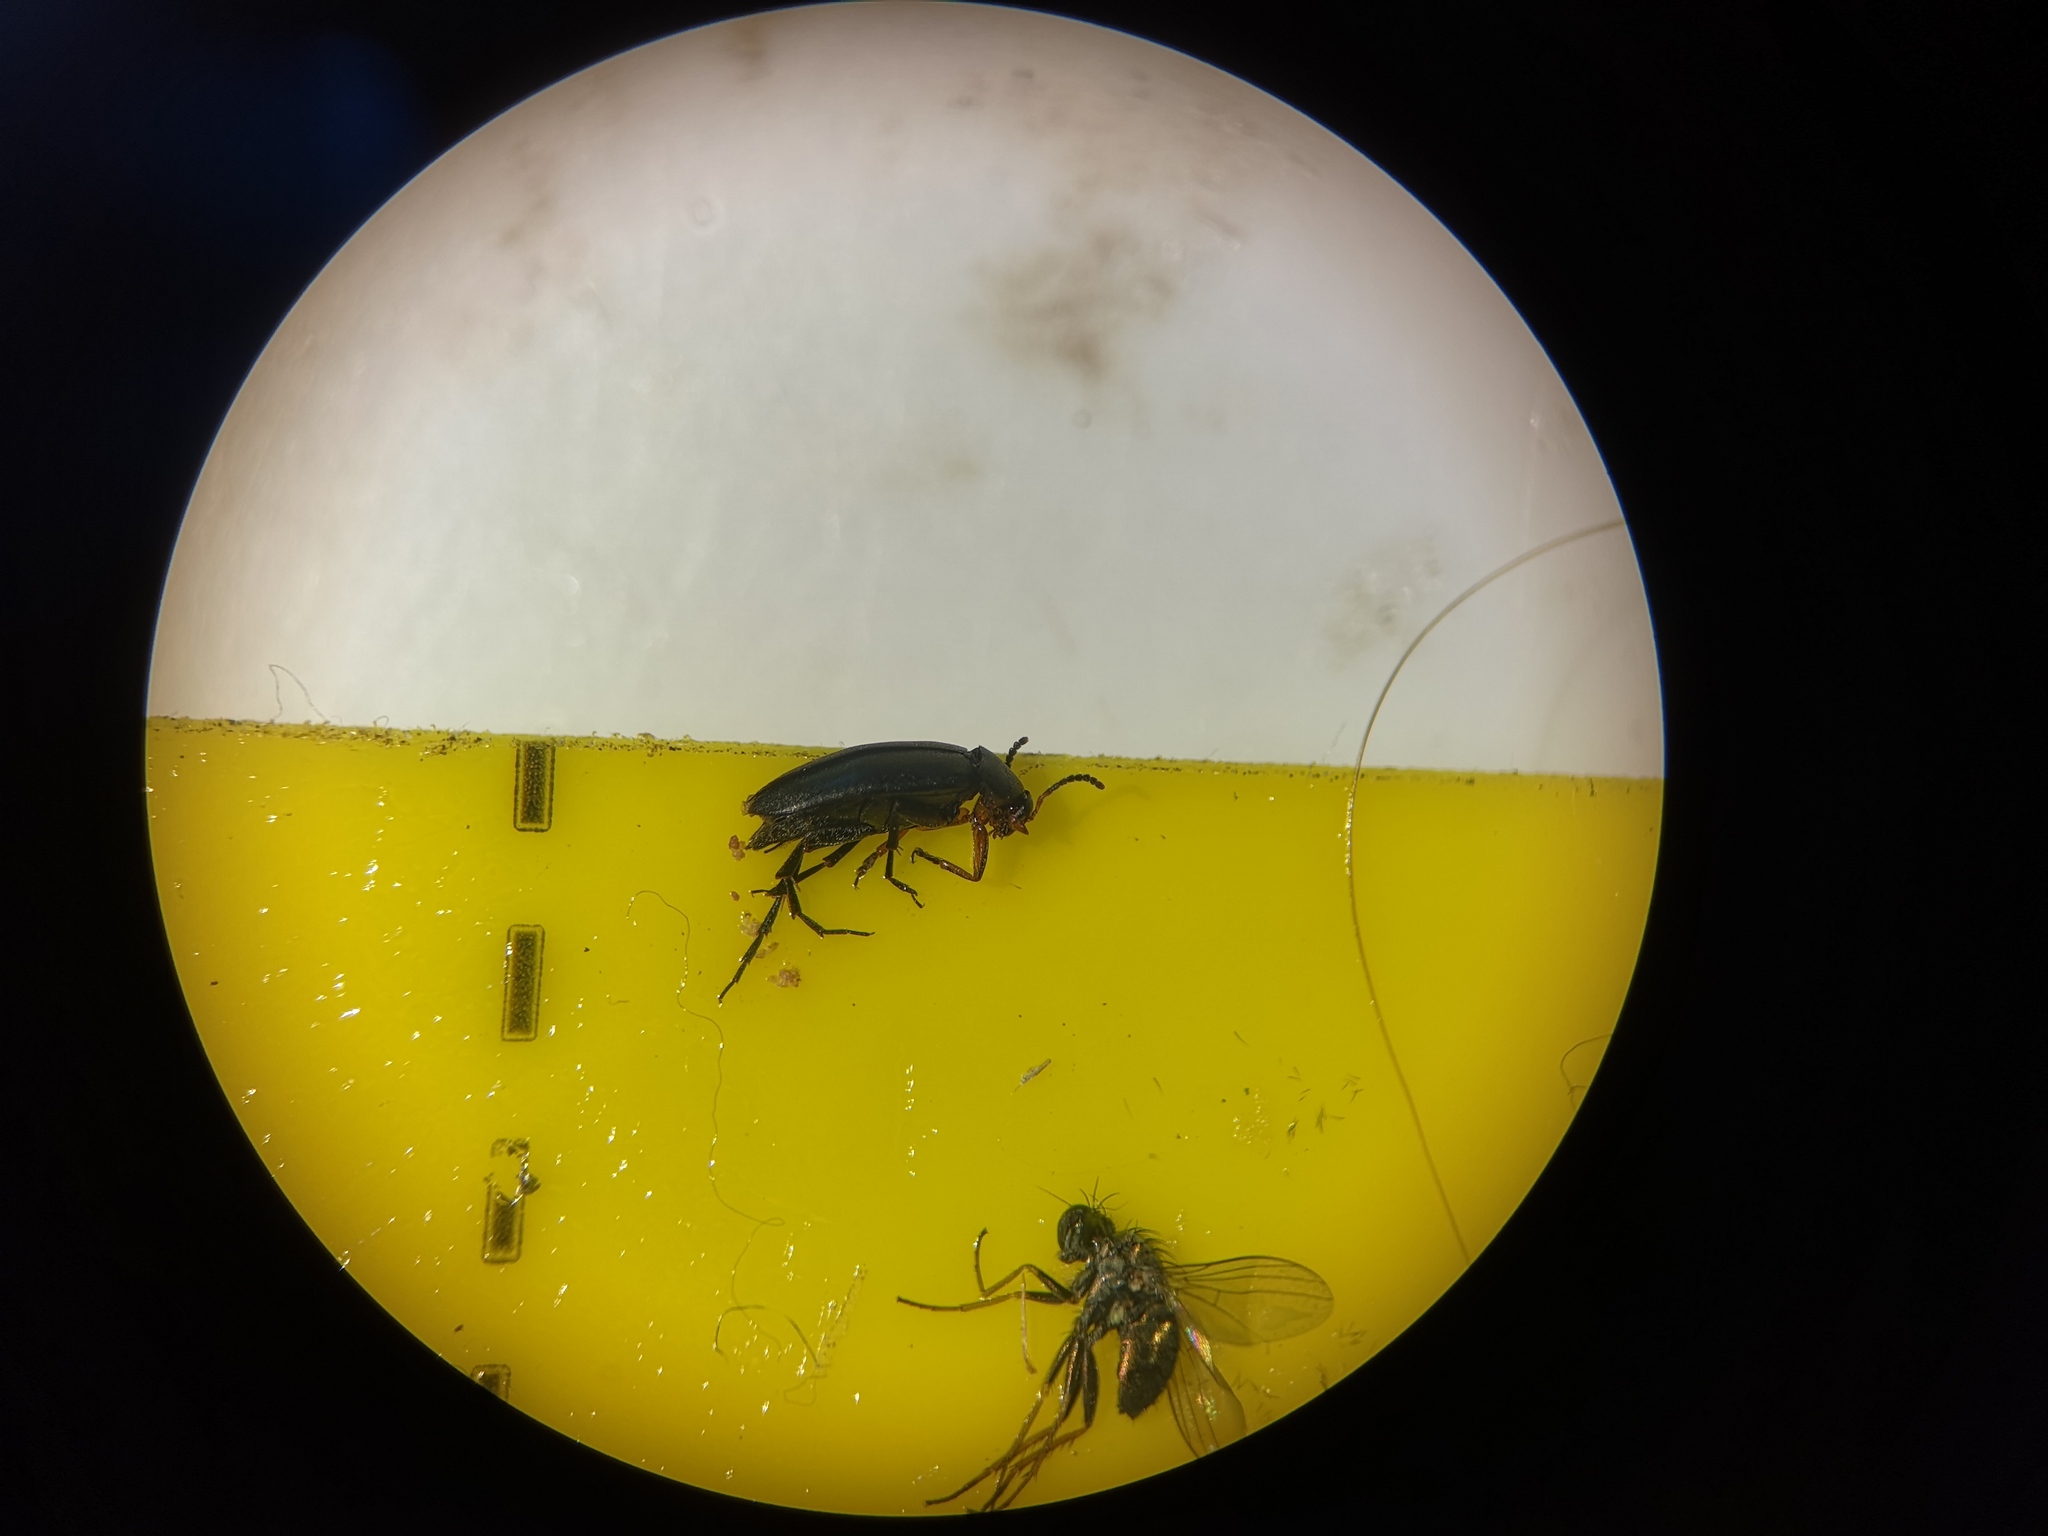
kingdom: Animalia
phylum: Arthropoda
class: Insecta
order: Coleoptera
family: Scraptiidae
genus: Anaspis
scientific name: Anaspis frontalis
